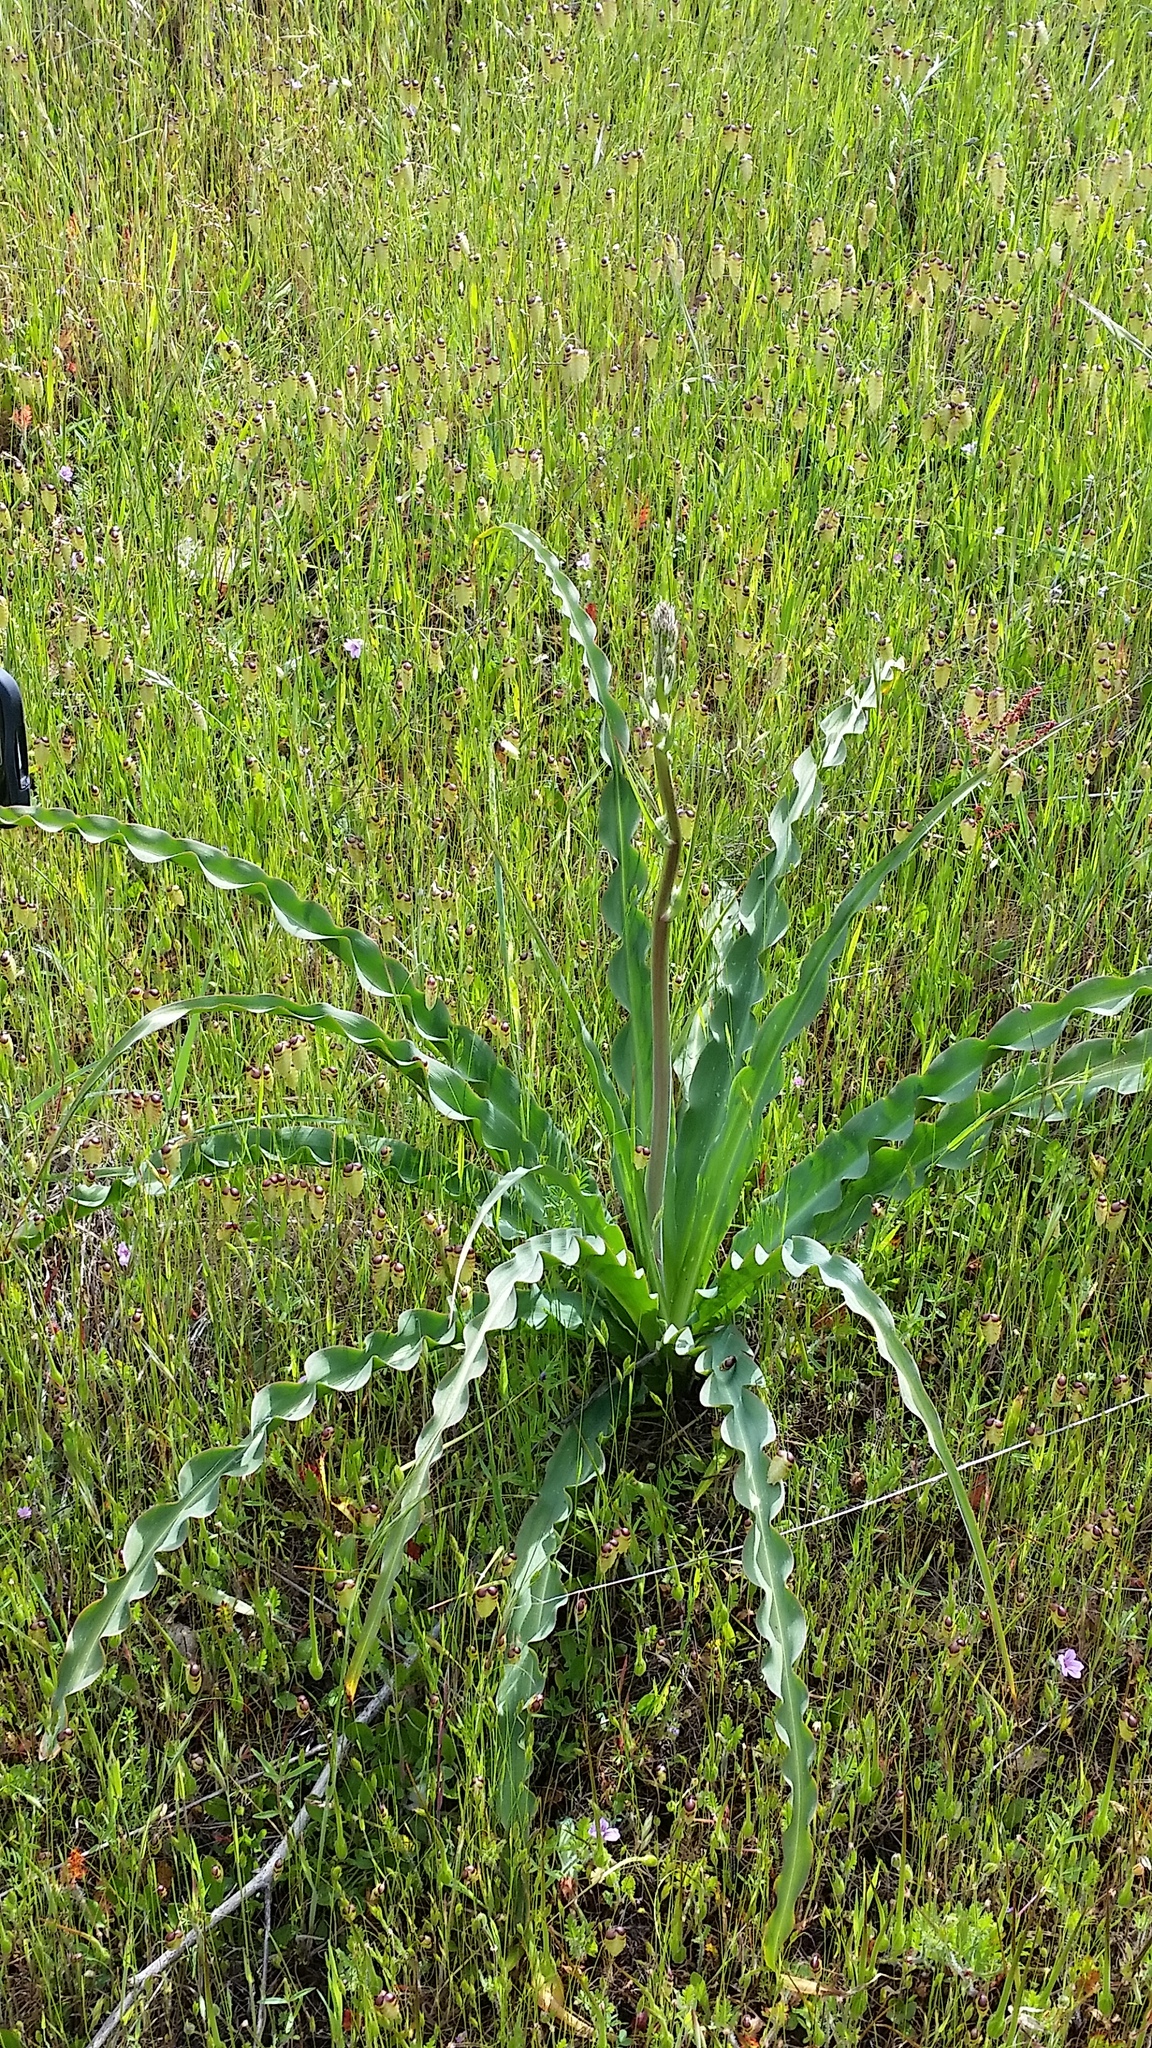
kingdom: Plantae
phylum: Tracheophyta
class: Liliopsida
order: Asparagales
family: Asparagaceae
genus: Chlorogalum
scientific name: Chlorogalum pomeridianum
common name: Amole
